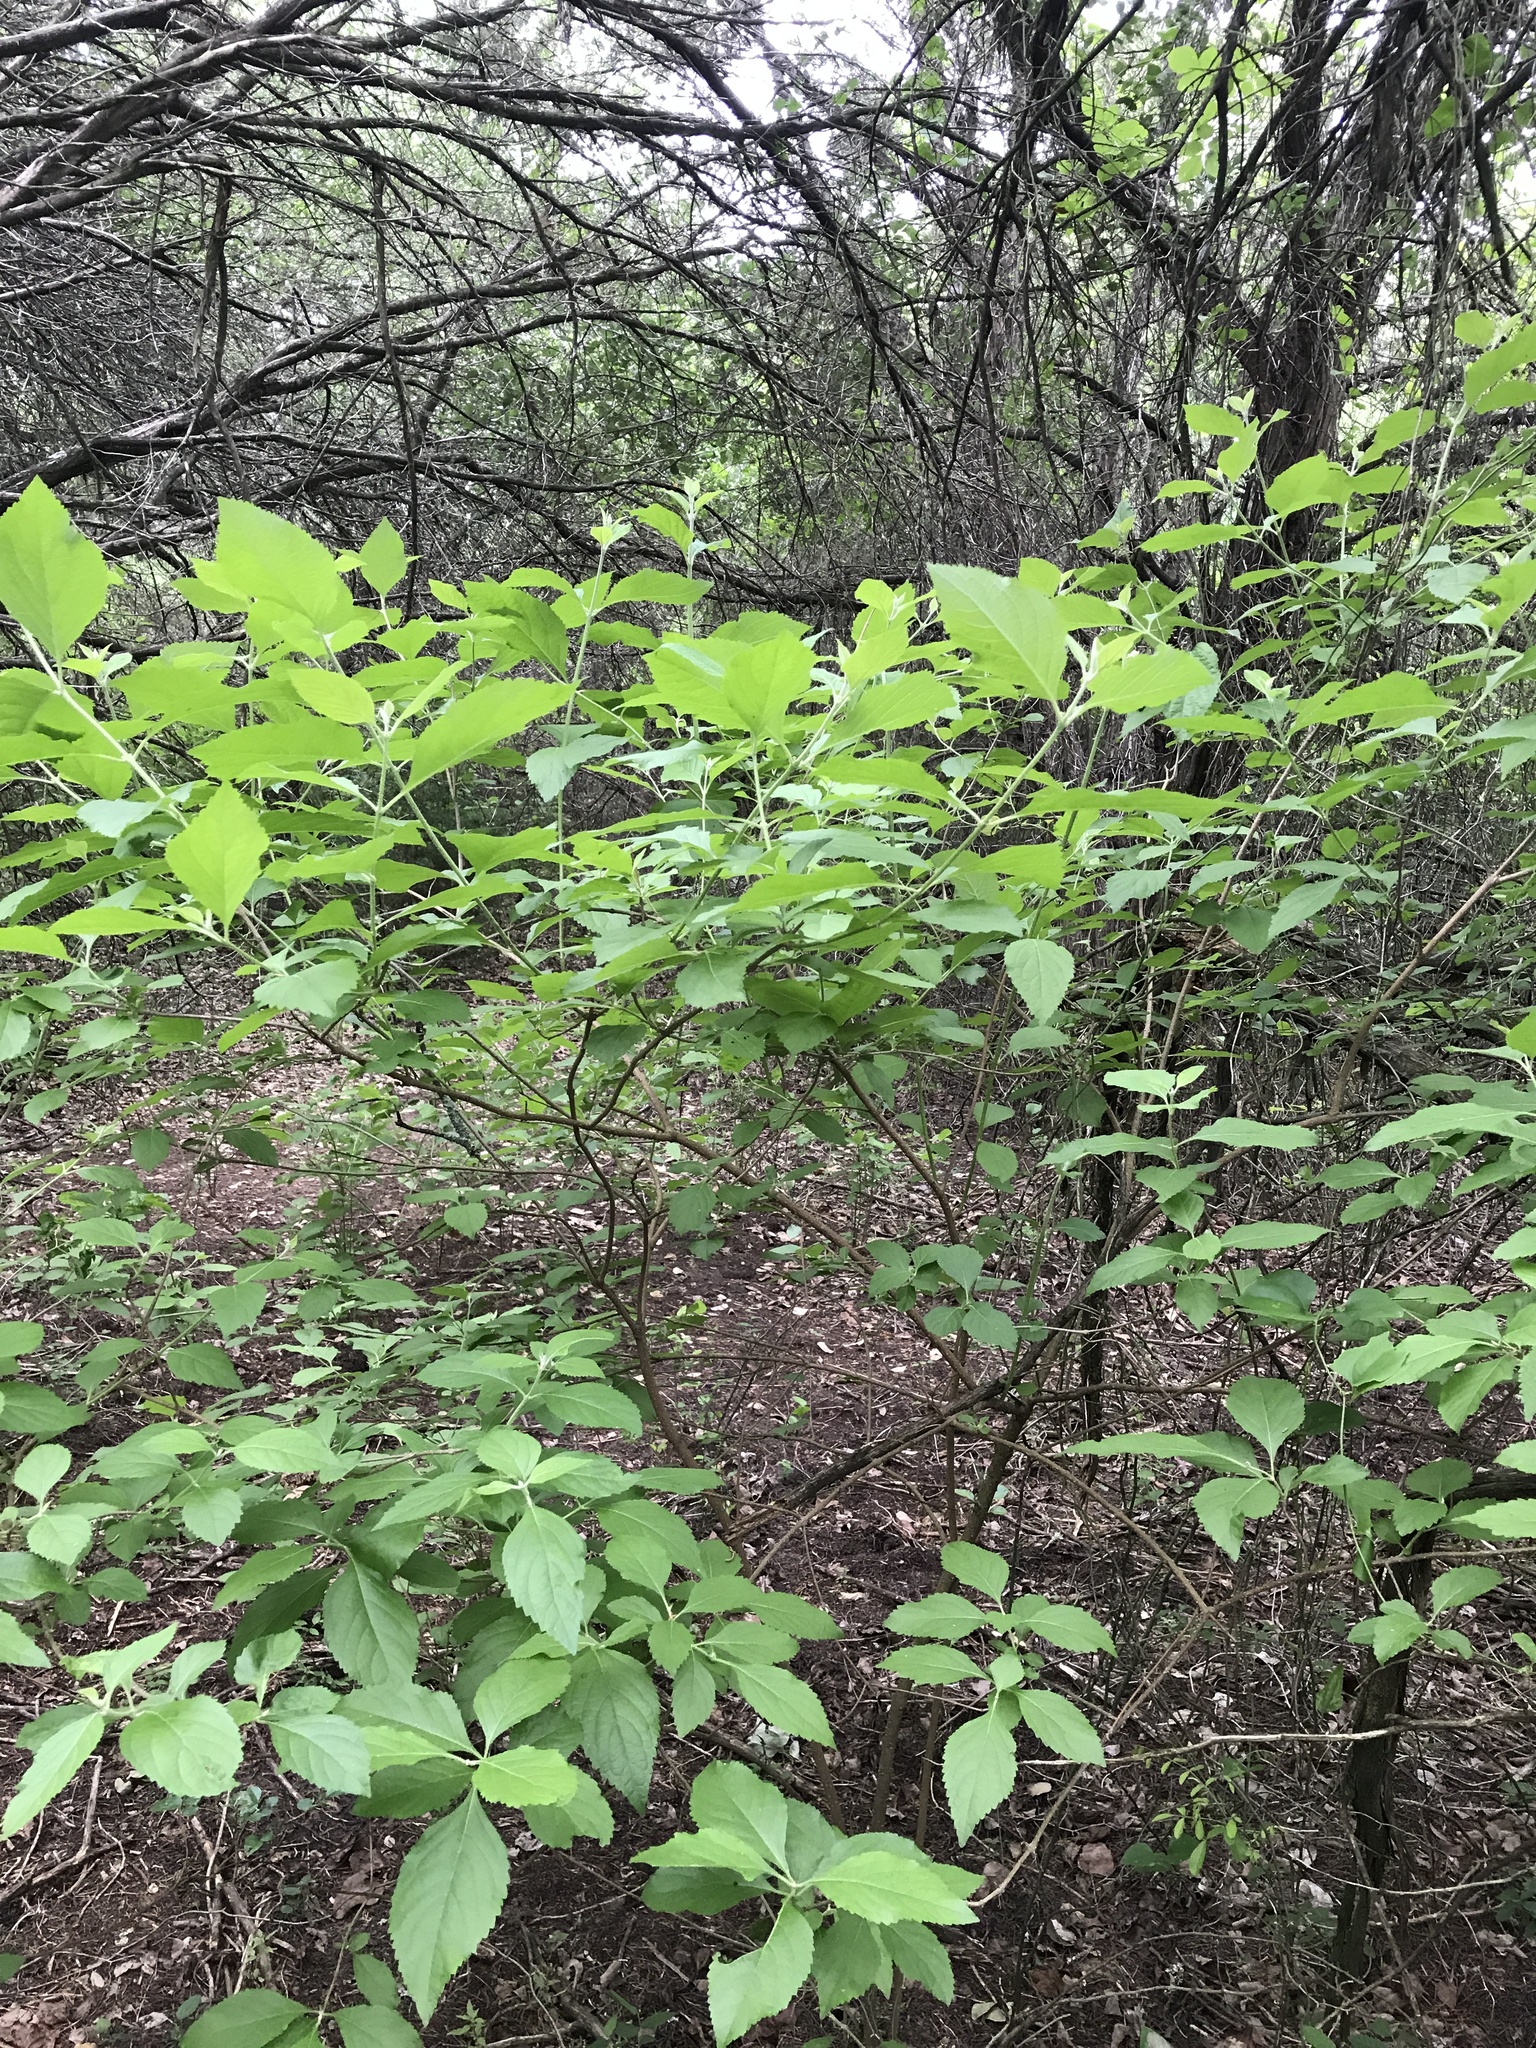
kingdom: Plantae
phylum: Tracheophyta
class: Magnoliopsida
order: Lamiales
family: Lamiaceae
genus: Callicarpa
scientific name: Callicarpa americana
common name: American beautyberry
